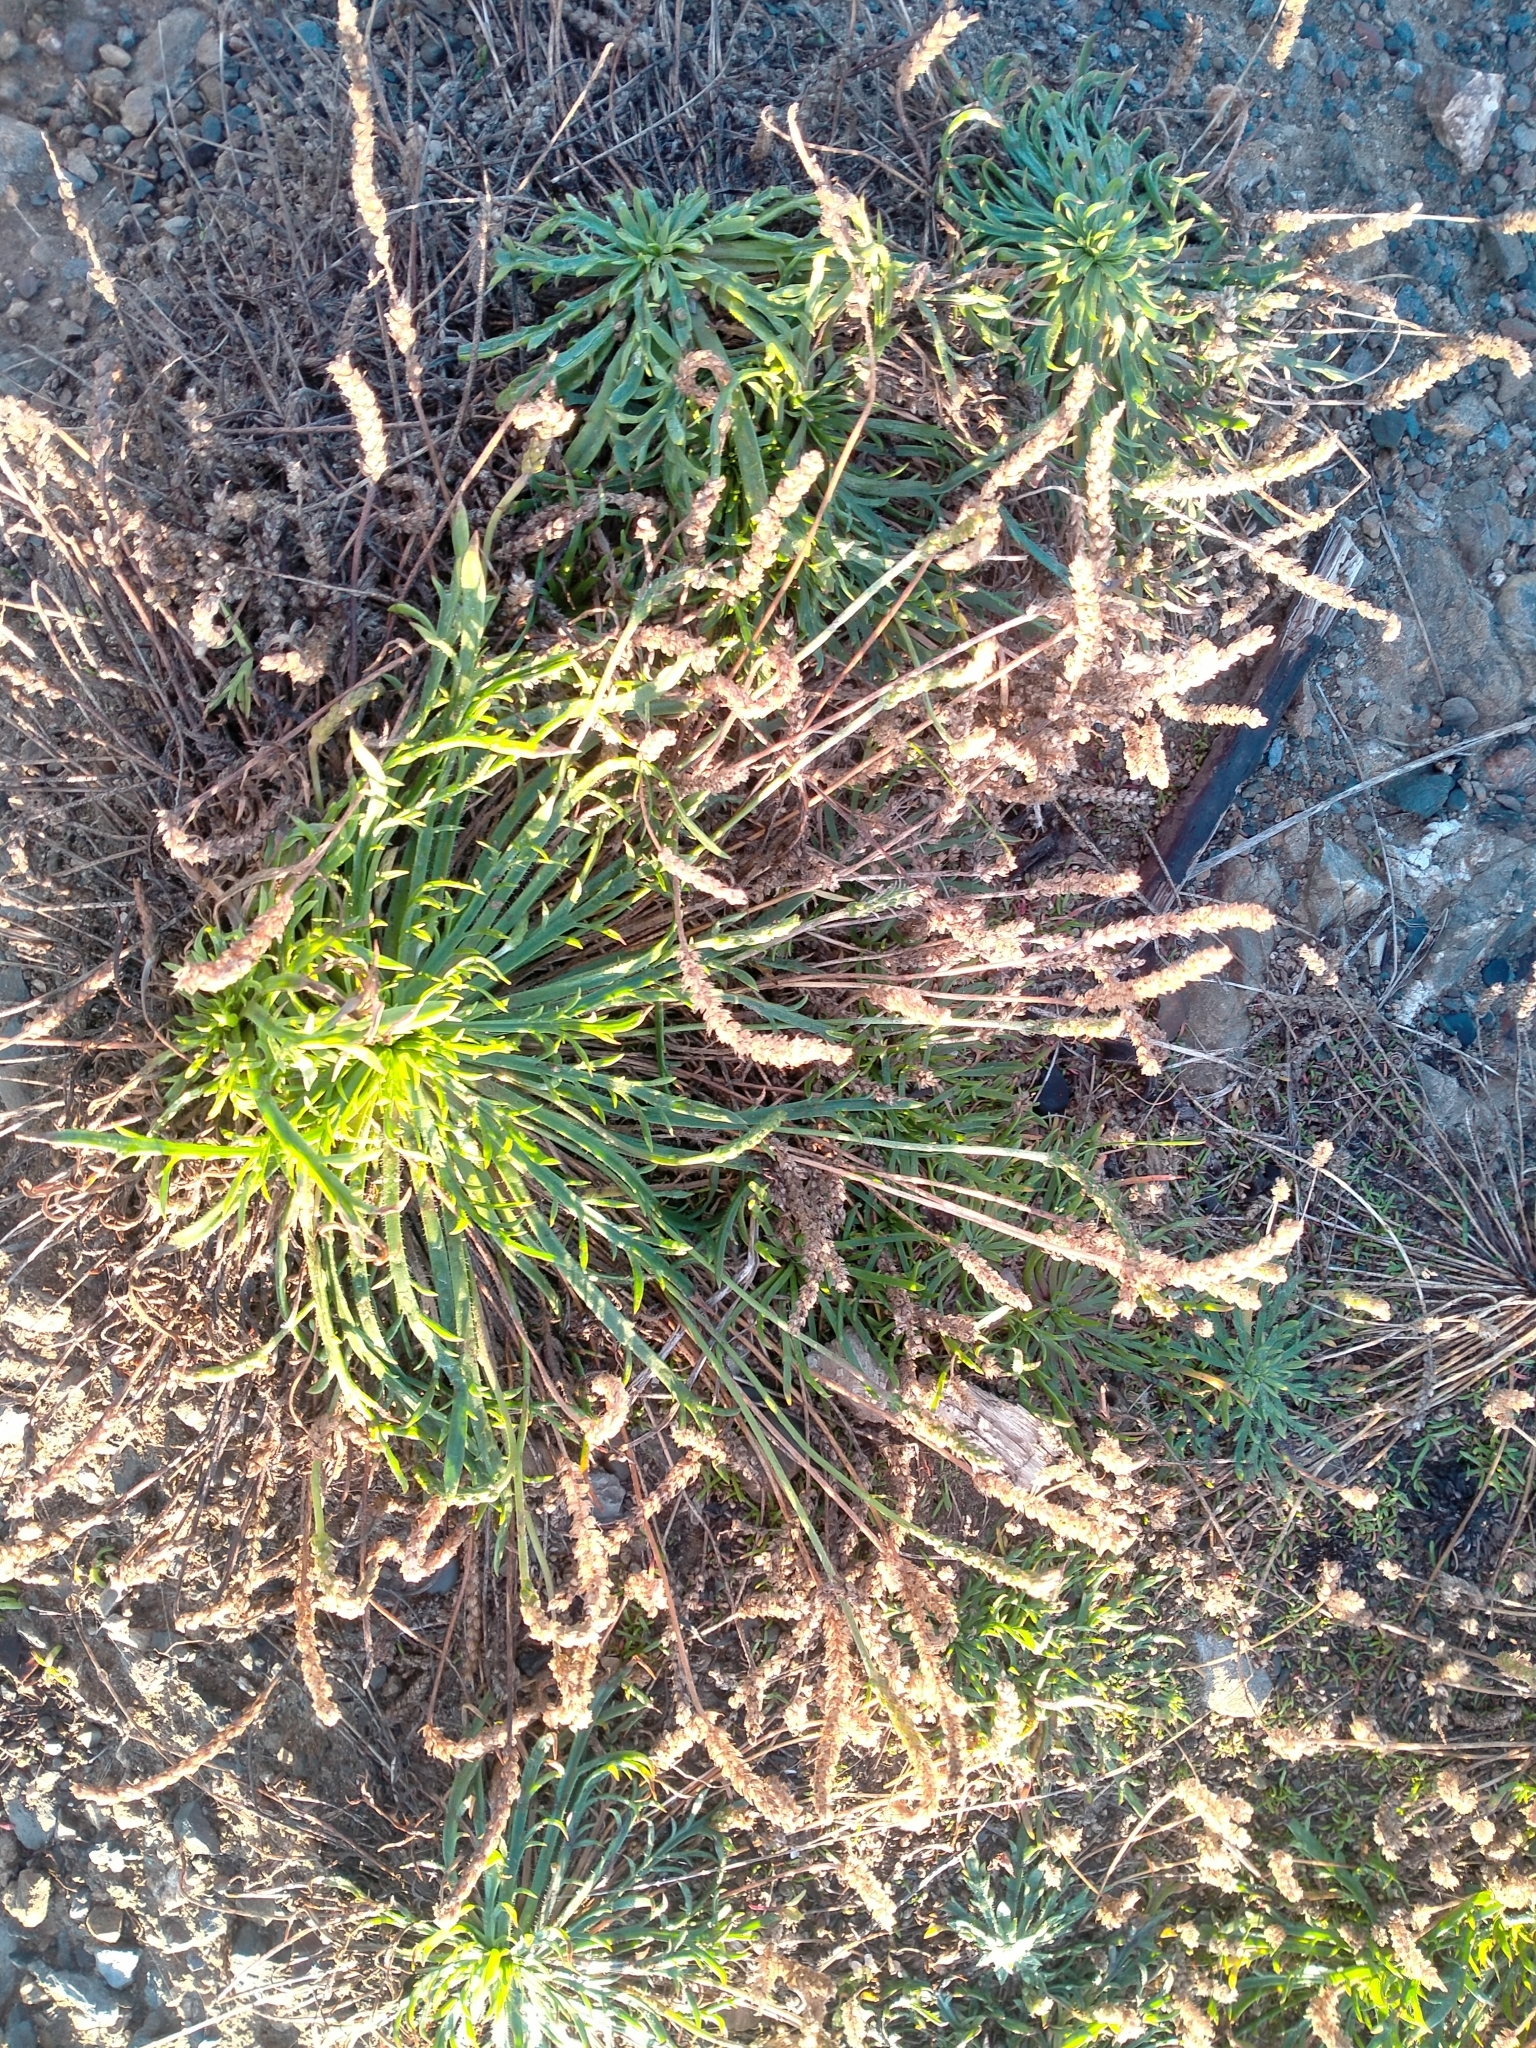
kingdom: Plantae
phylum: Tracheophyta
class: Magnoliopsida
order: Lamiales
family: Plantaginaceae
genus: Plantago
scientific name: Plantago coronopus
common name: Buck's-horn plantain
